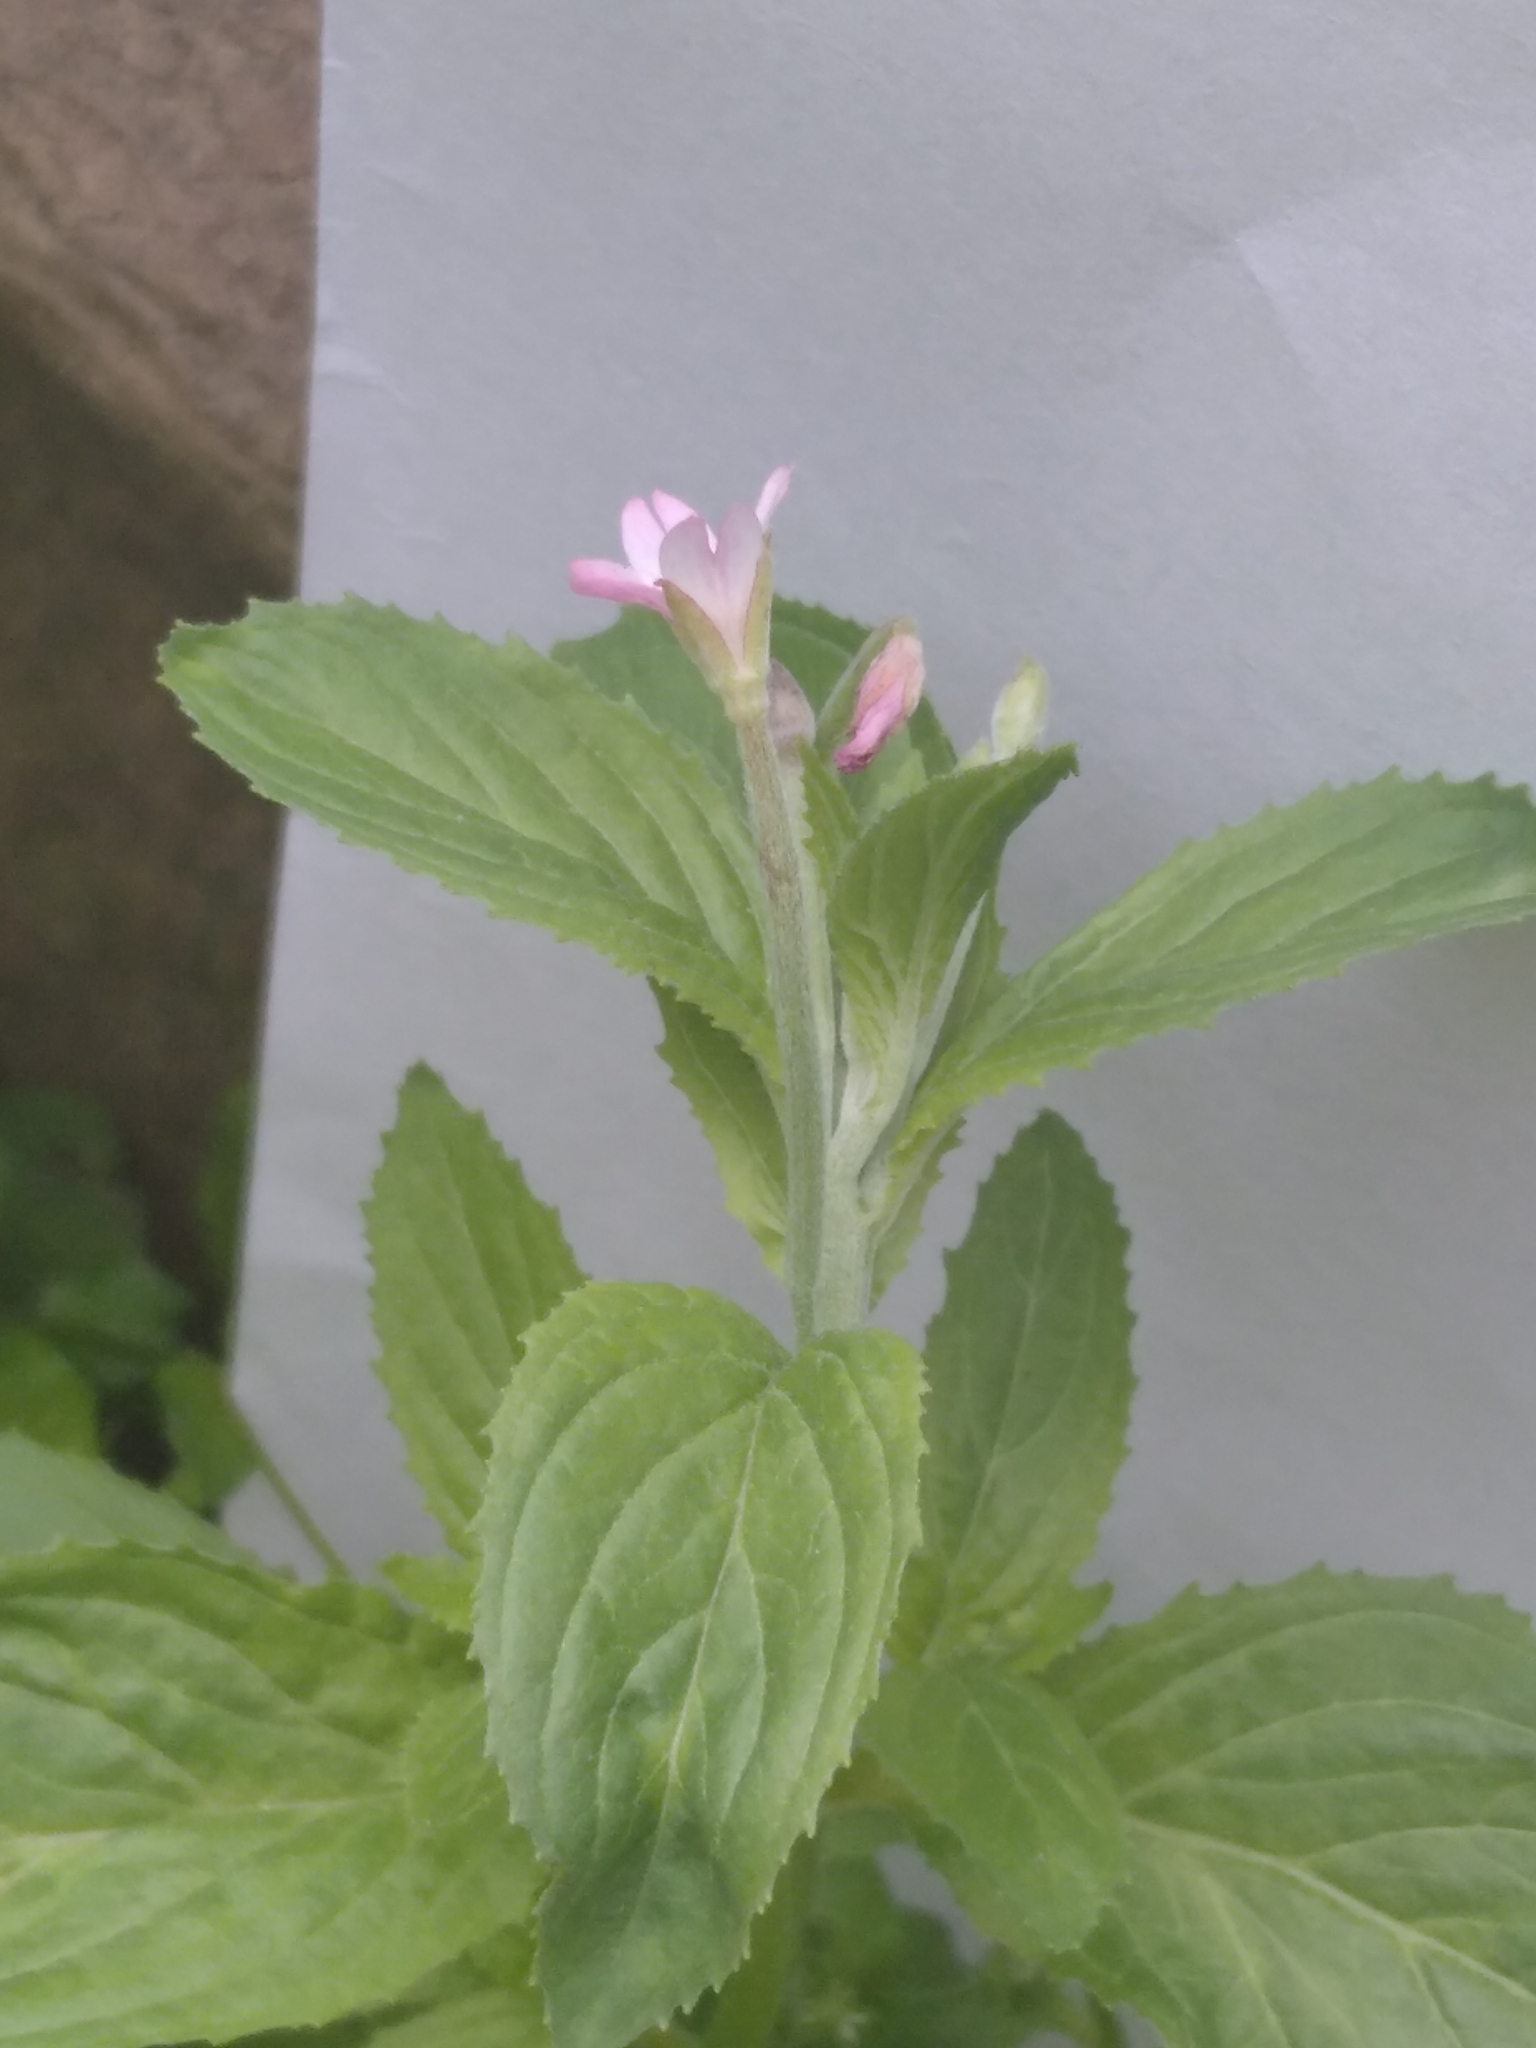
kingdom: Plantae
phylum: Tracheophyta
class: Magnoliopsida
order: Myrtales
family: Onagraceae
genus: Epilobium
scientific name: Epilobium roseum
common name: Pale willowherb
